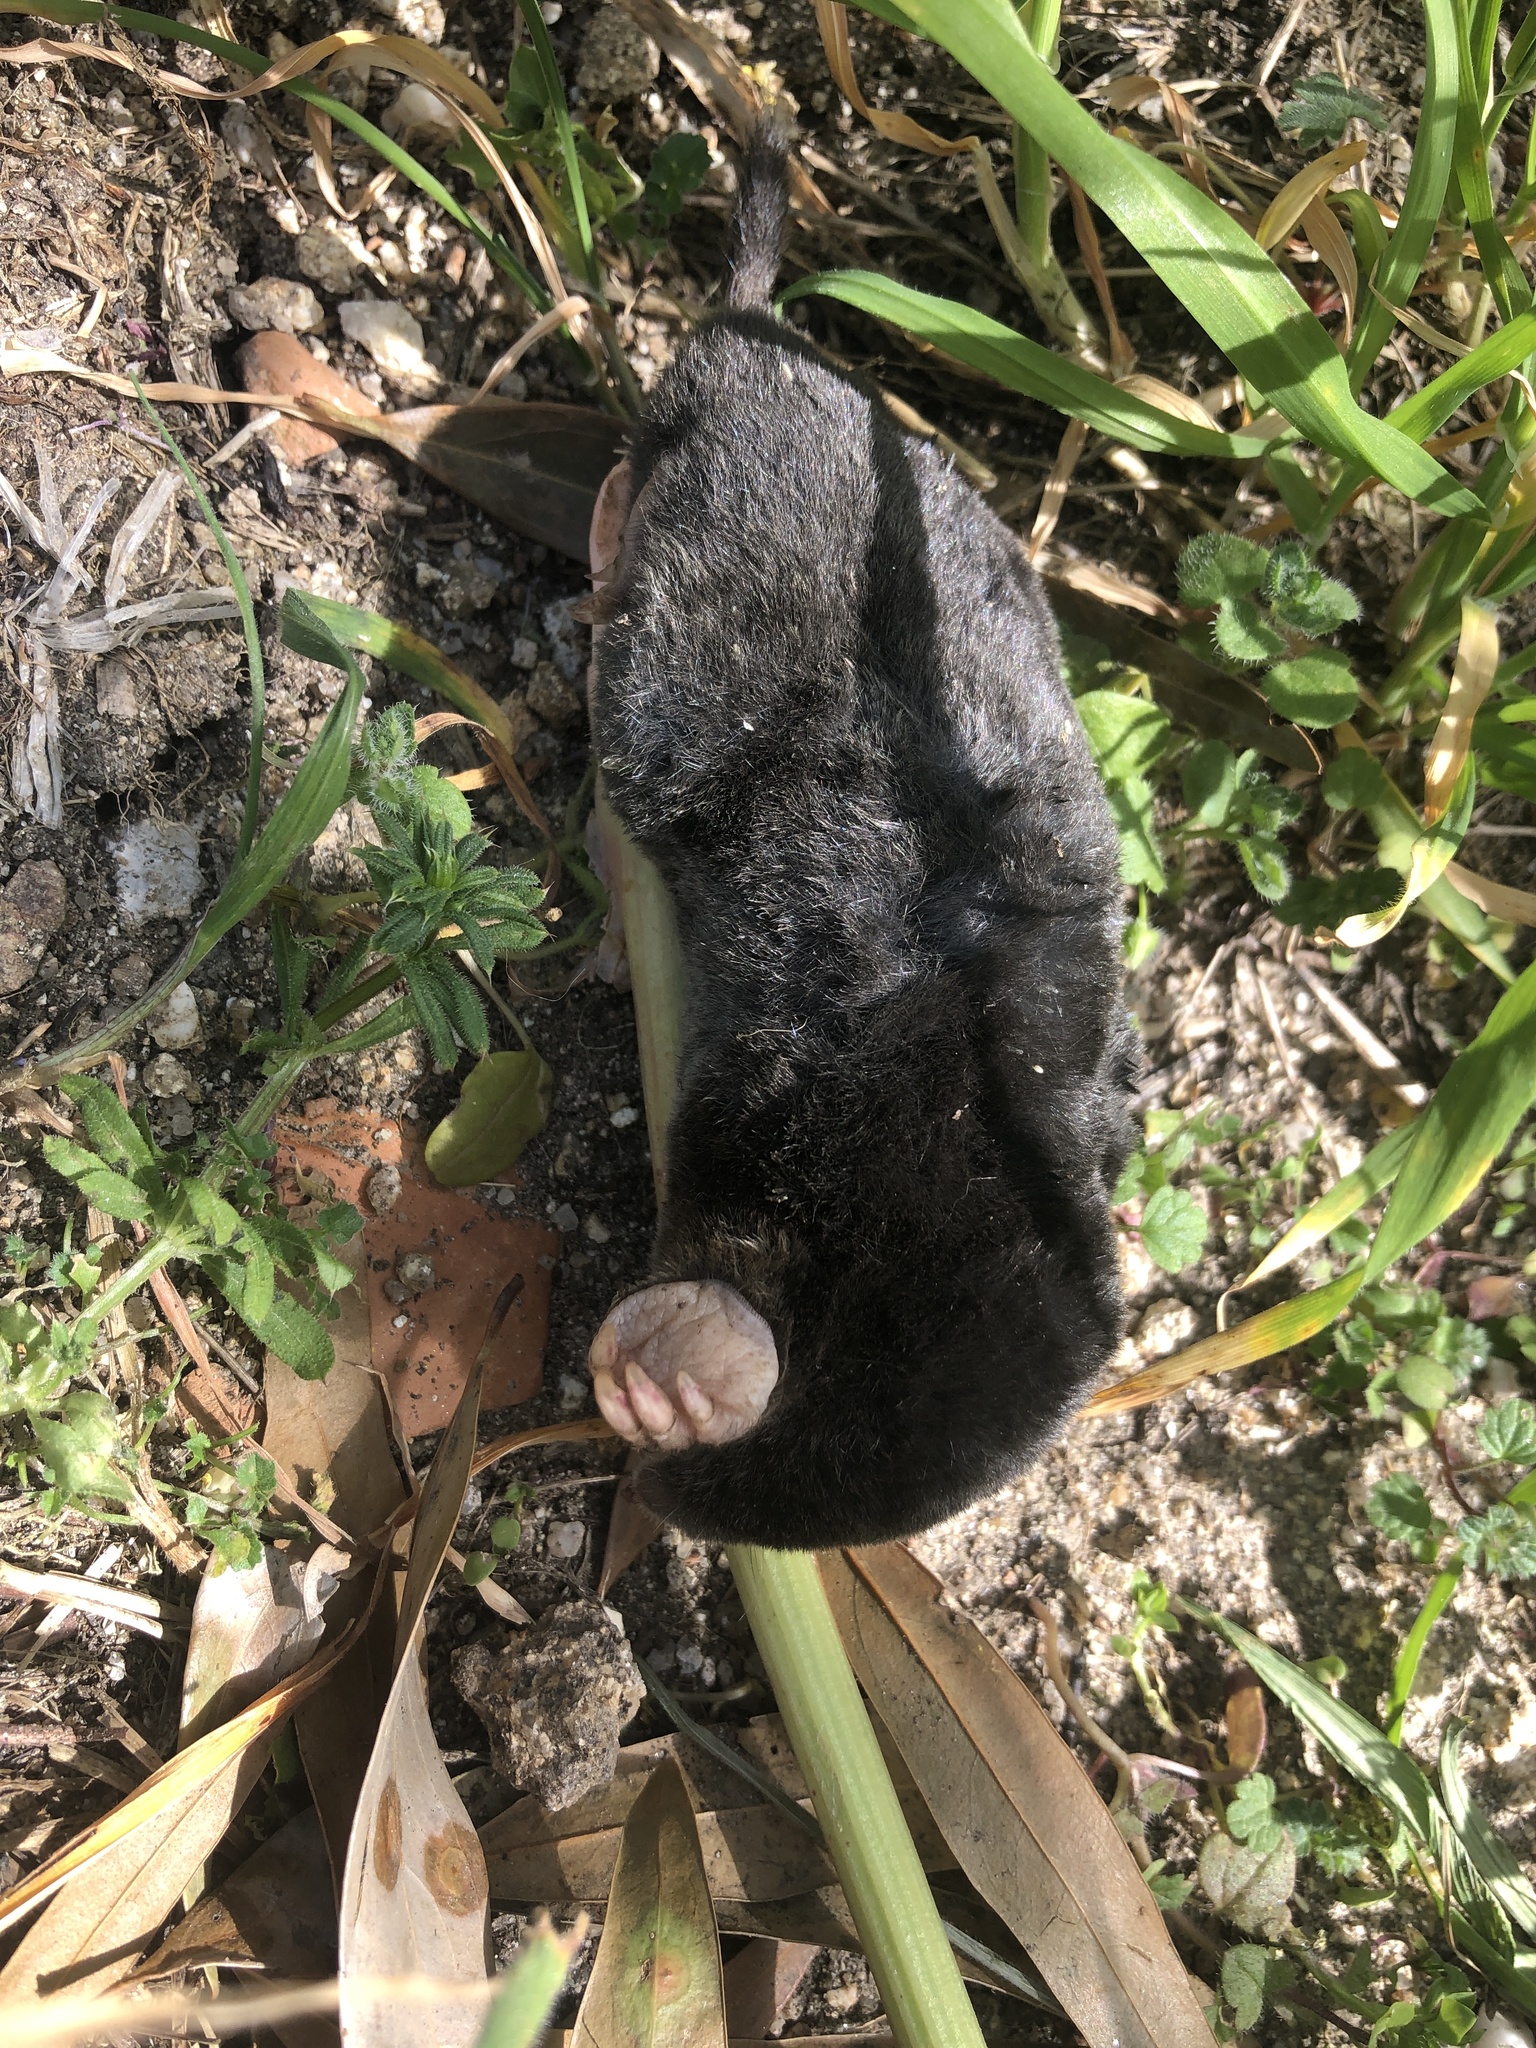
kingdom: Animalia
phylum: Chordata
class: Mammalia
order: Soricomorpha
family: Talpidae
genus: Talpa
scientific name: Talpa occidentalis
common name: Iberian mole
